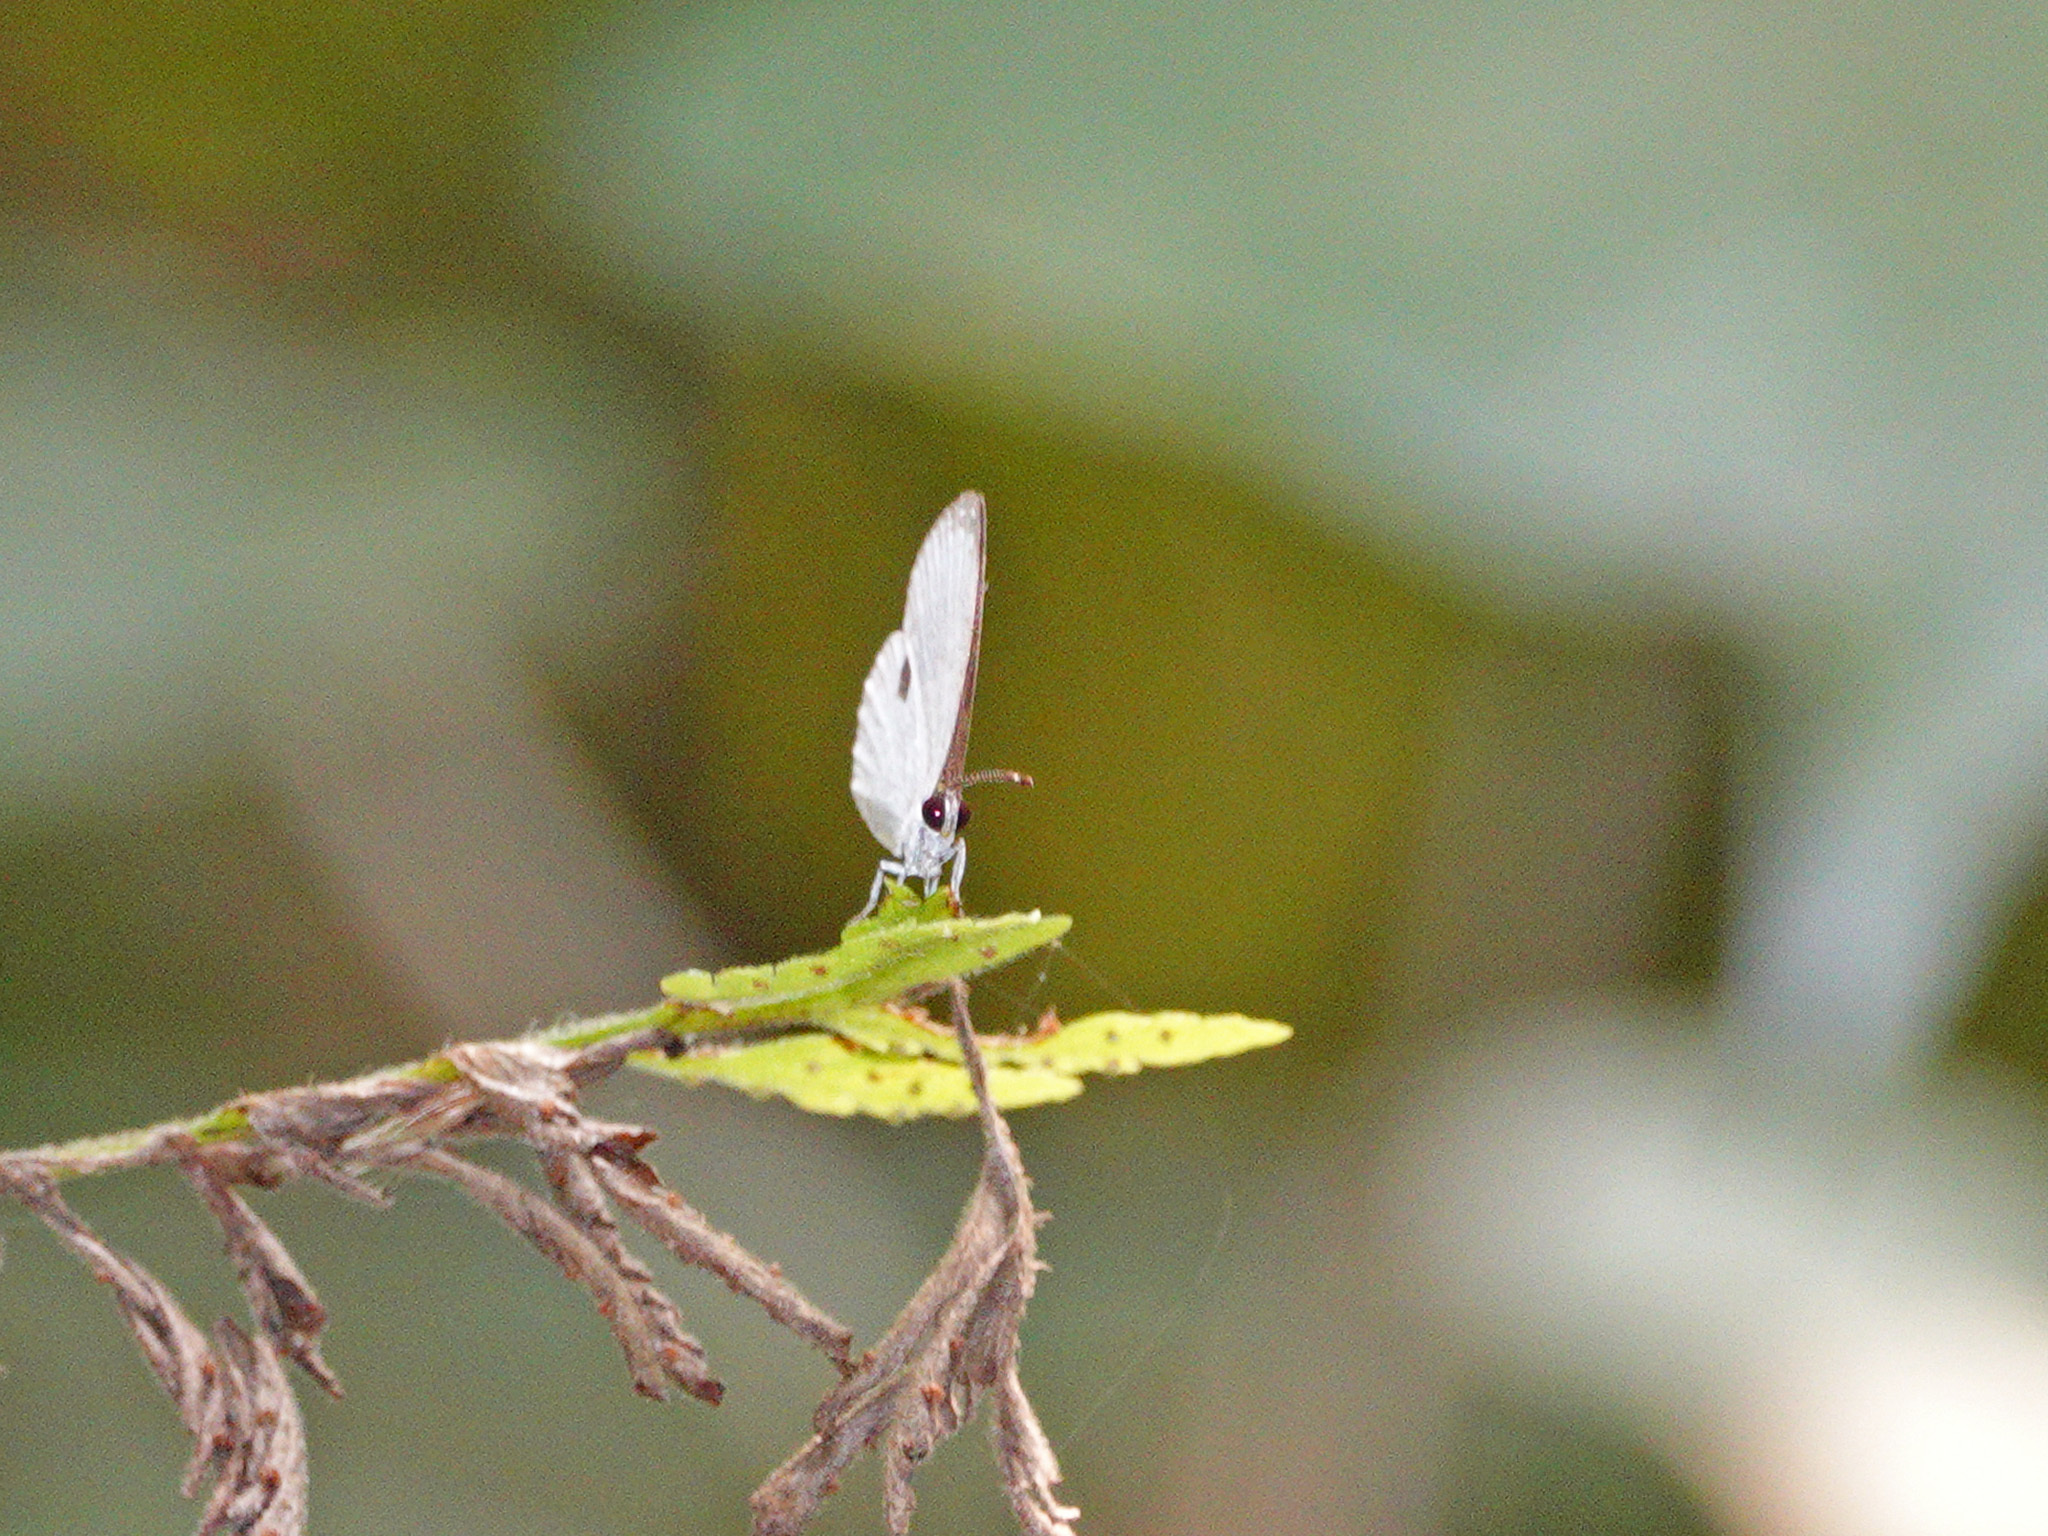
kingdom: Animalia
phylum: Arthropoda
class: Insecta
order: Lepidoptera
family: Lycaenidae
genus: Pithecops
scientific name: Pithecops corvus
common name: Forest quaker
